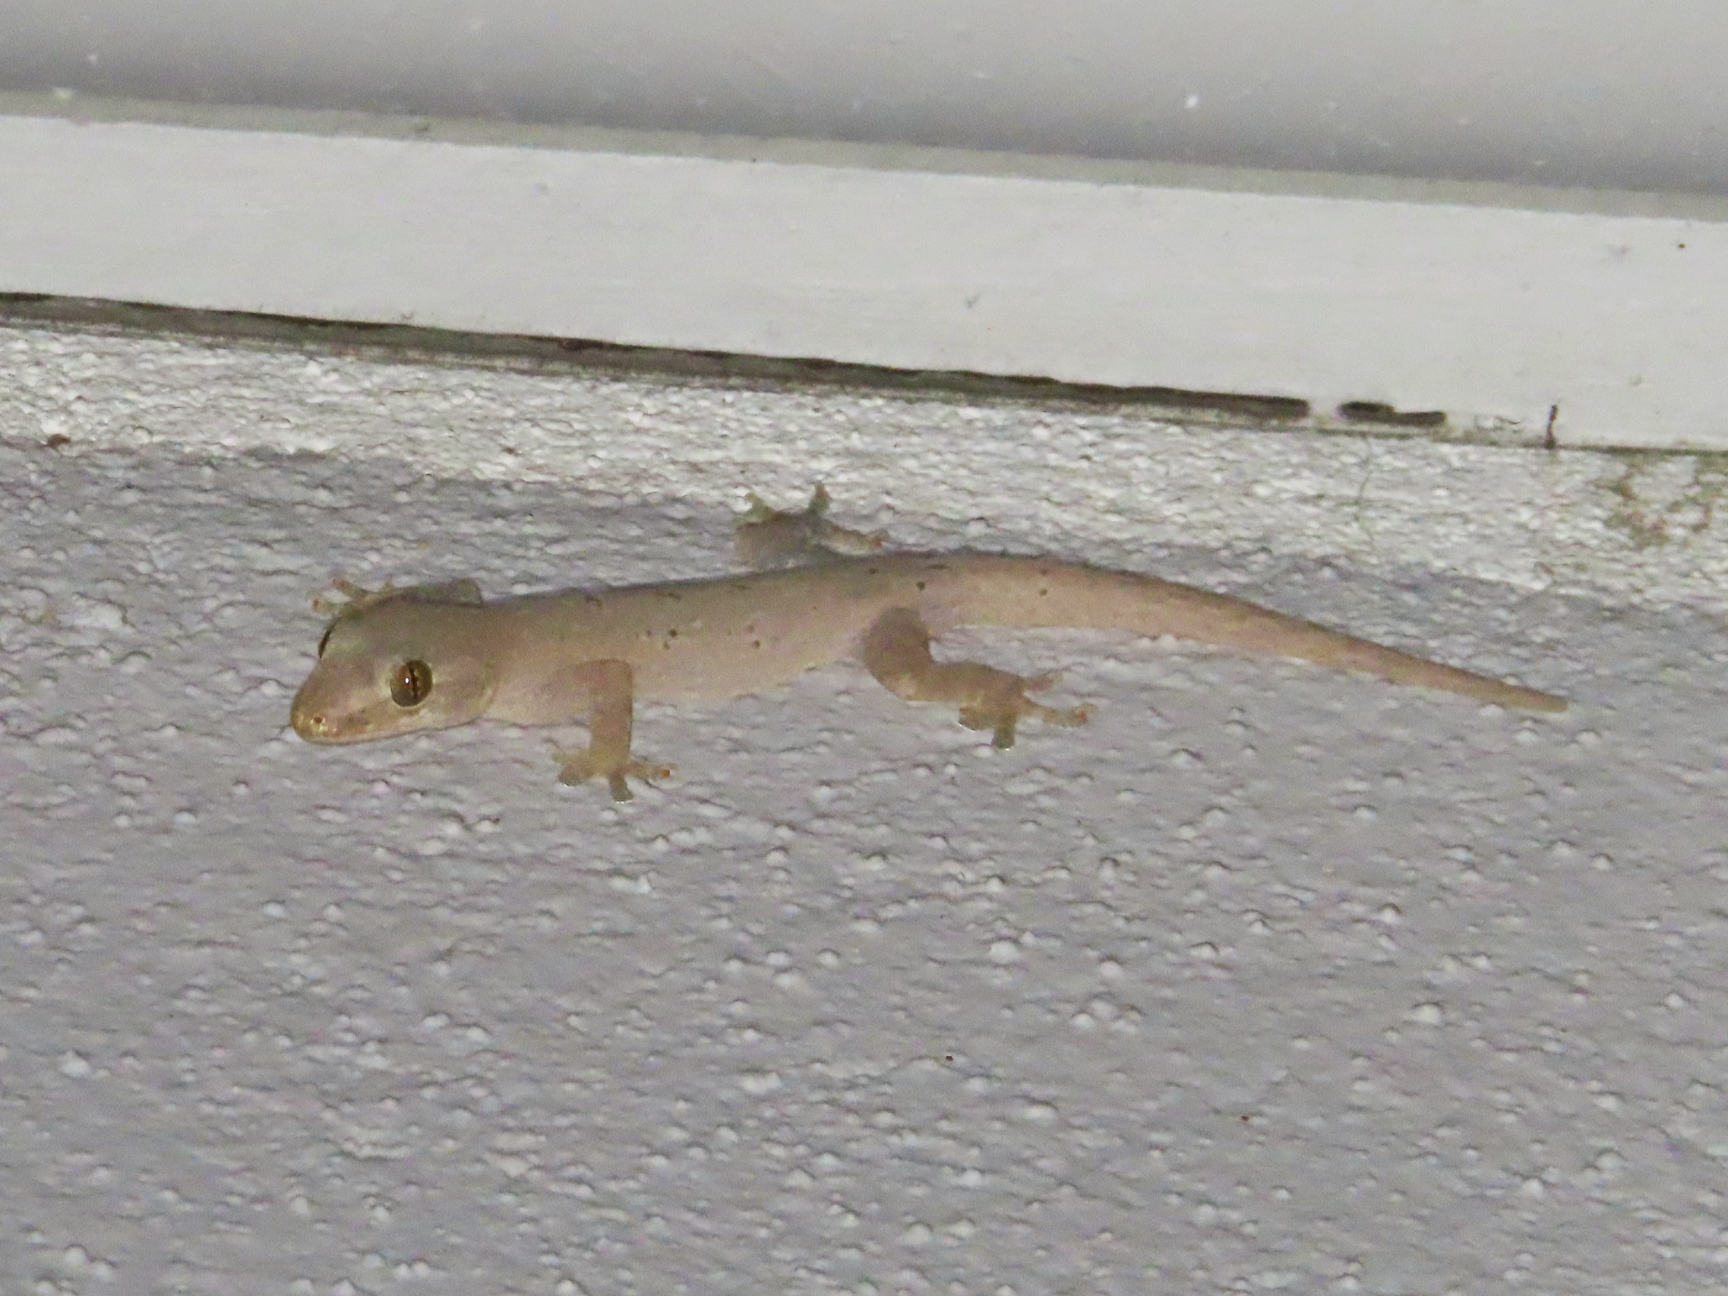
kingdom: Animalia
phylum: Chordata
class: Squamata
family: Gekkonidae
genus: Hemidactylus
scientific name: Hemidactylus frenatus
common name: Common house gecko
